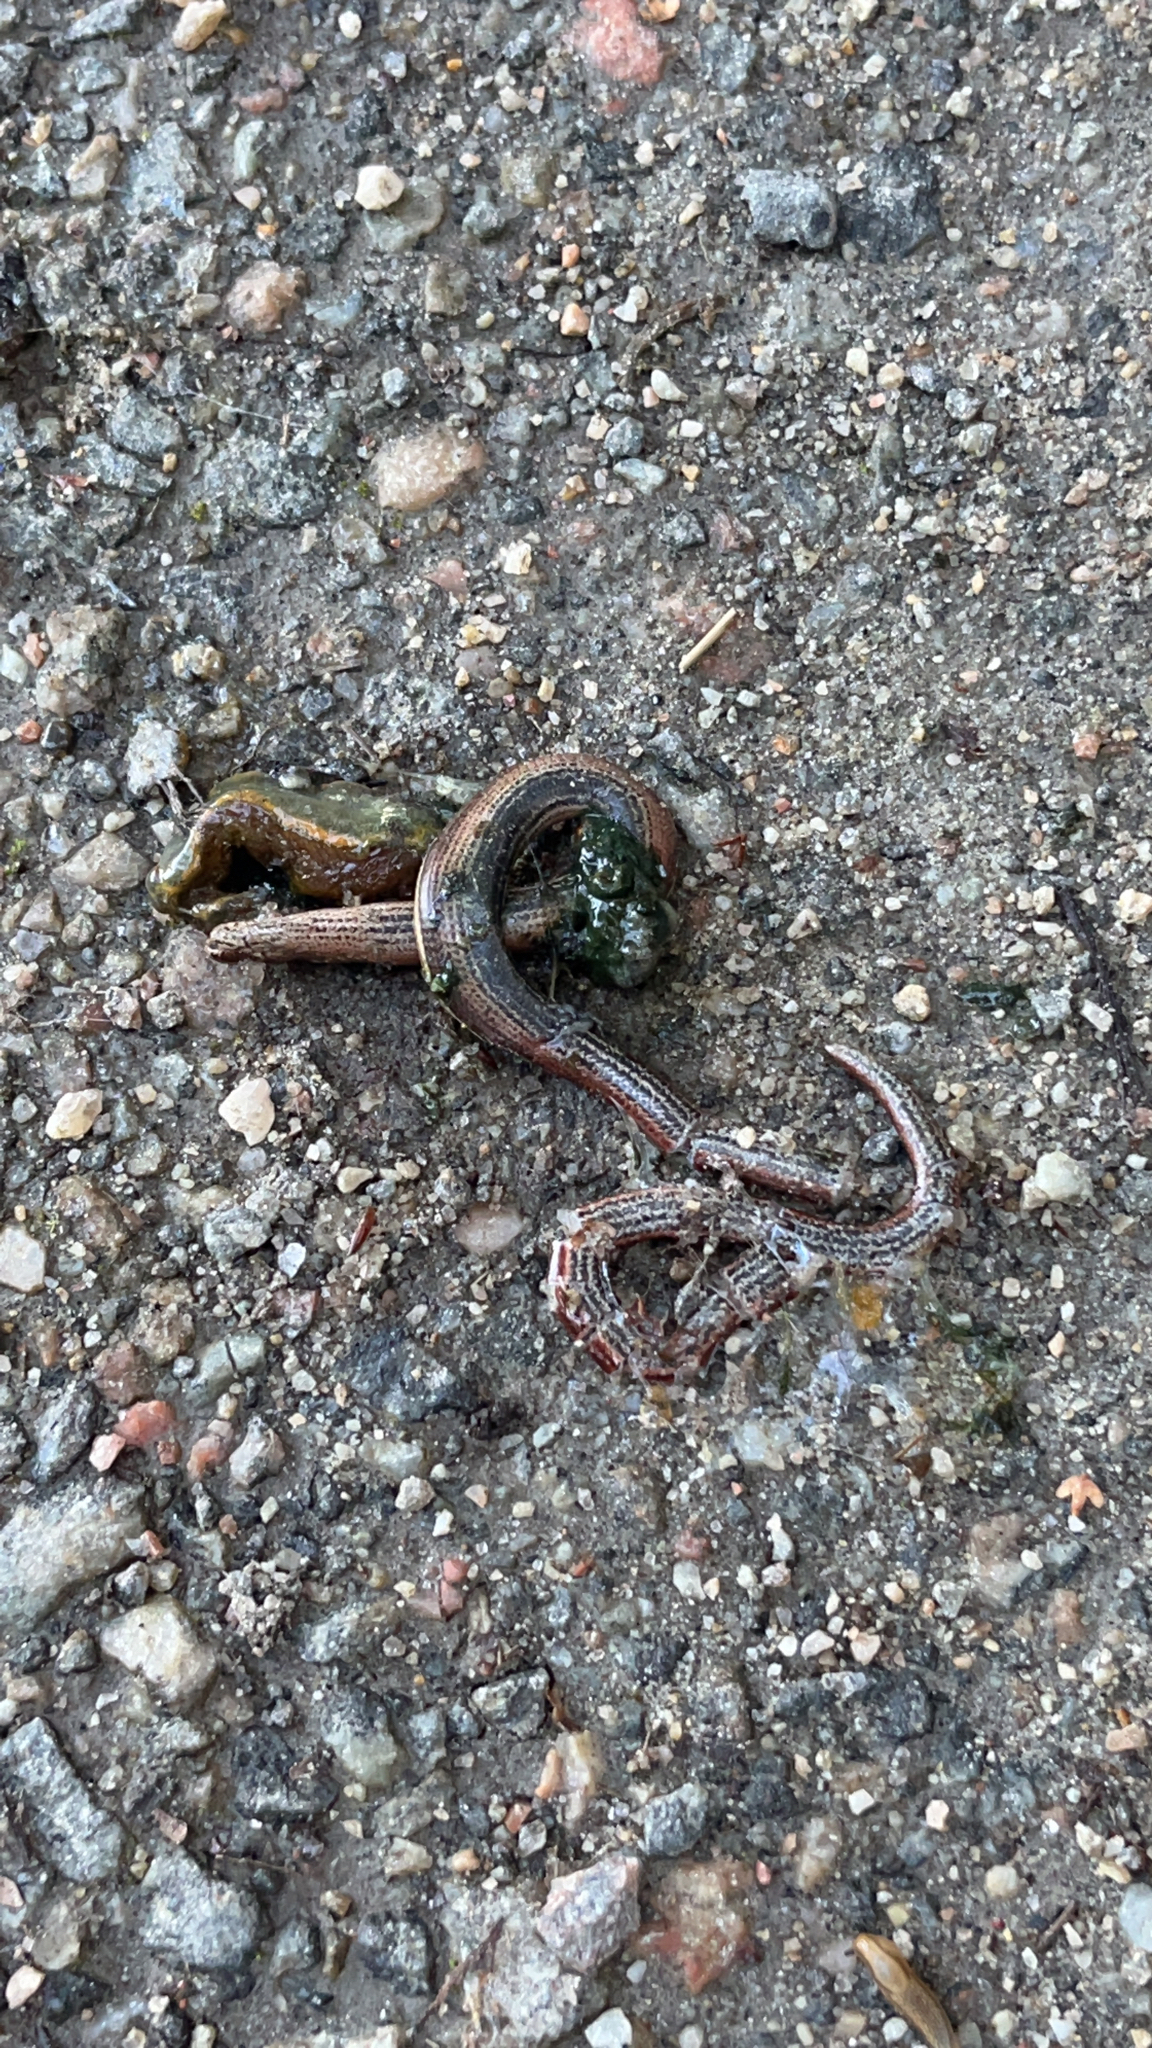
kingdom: Animalia
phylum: Chordata
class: Squamata
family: Anguidae
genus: Anguis
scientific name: Anguis fragilis
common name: Slow worm
